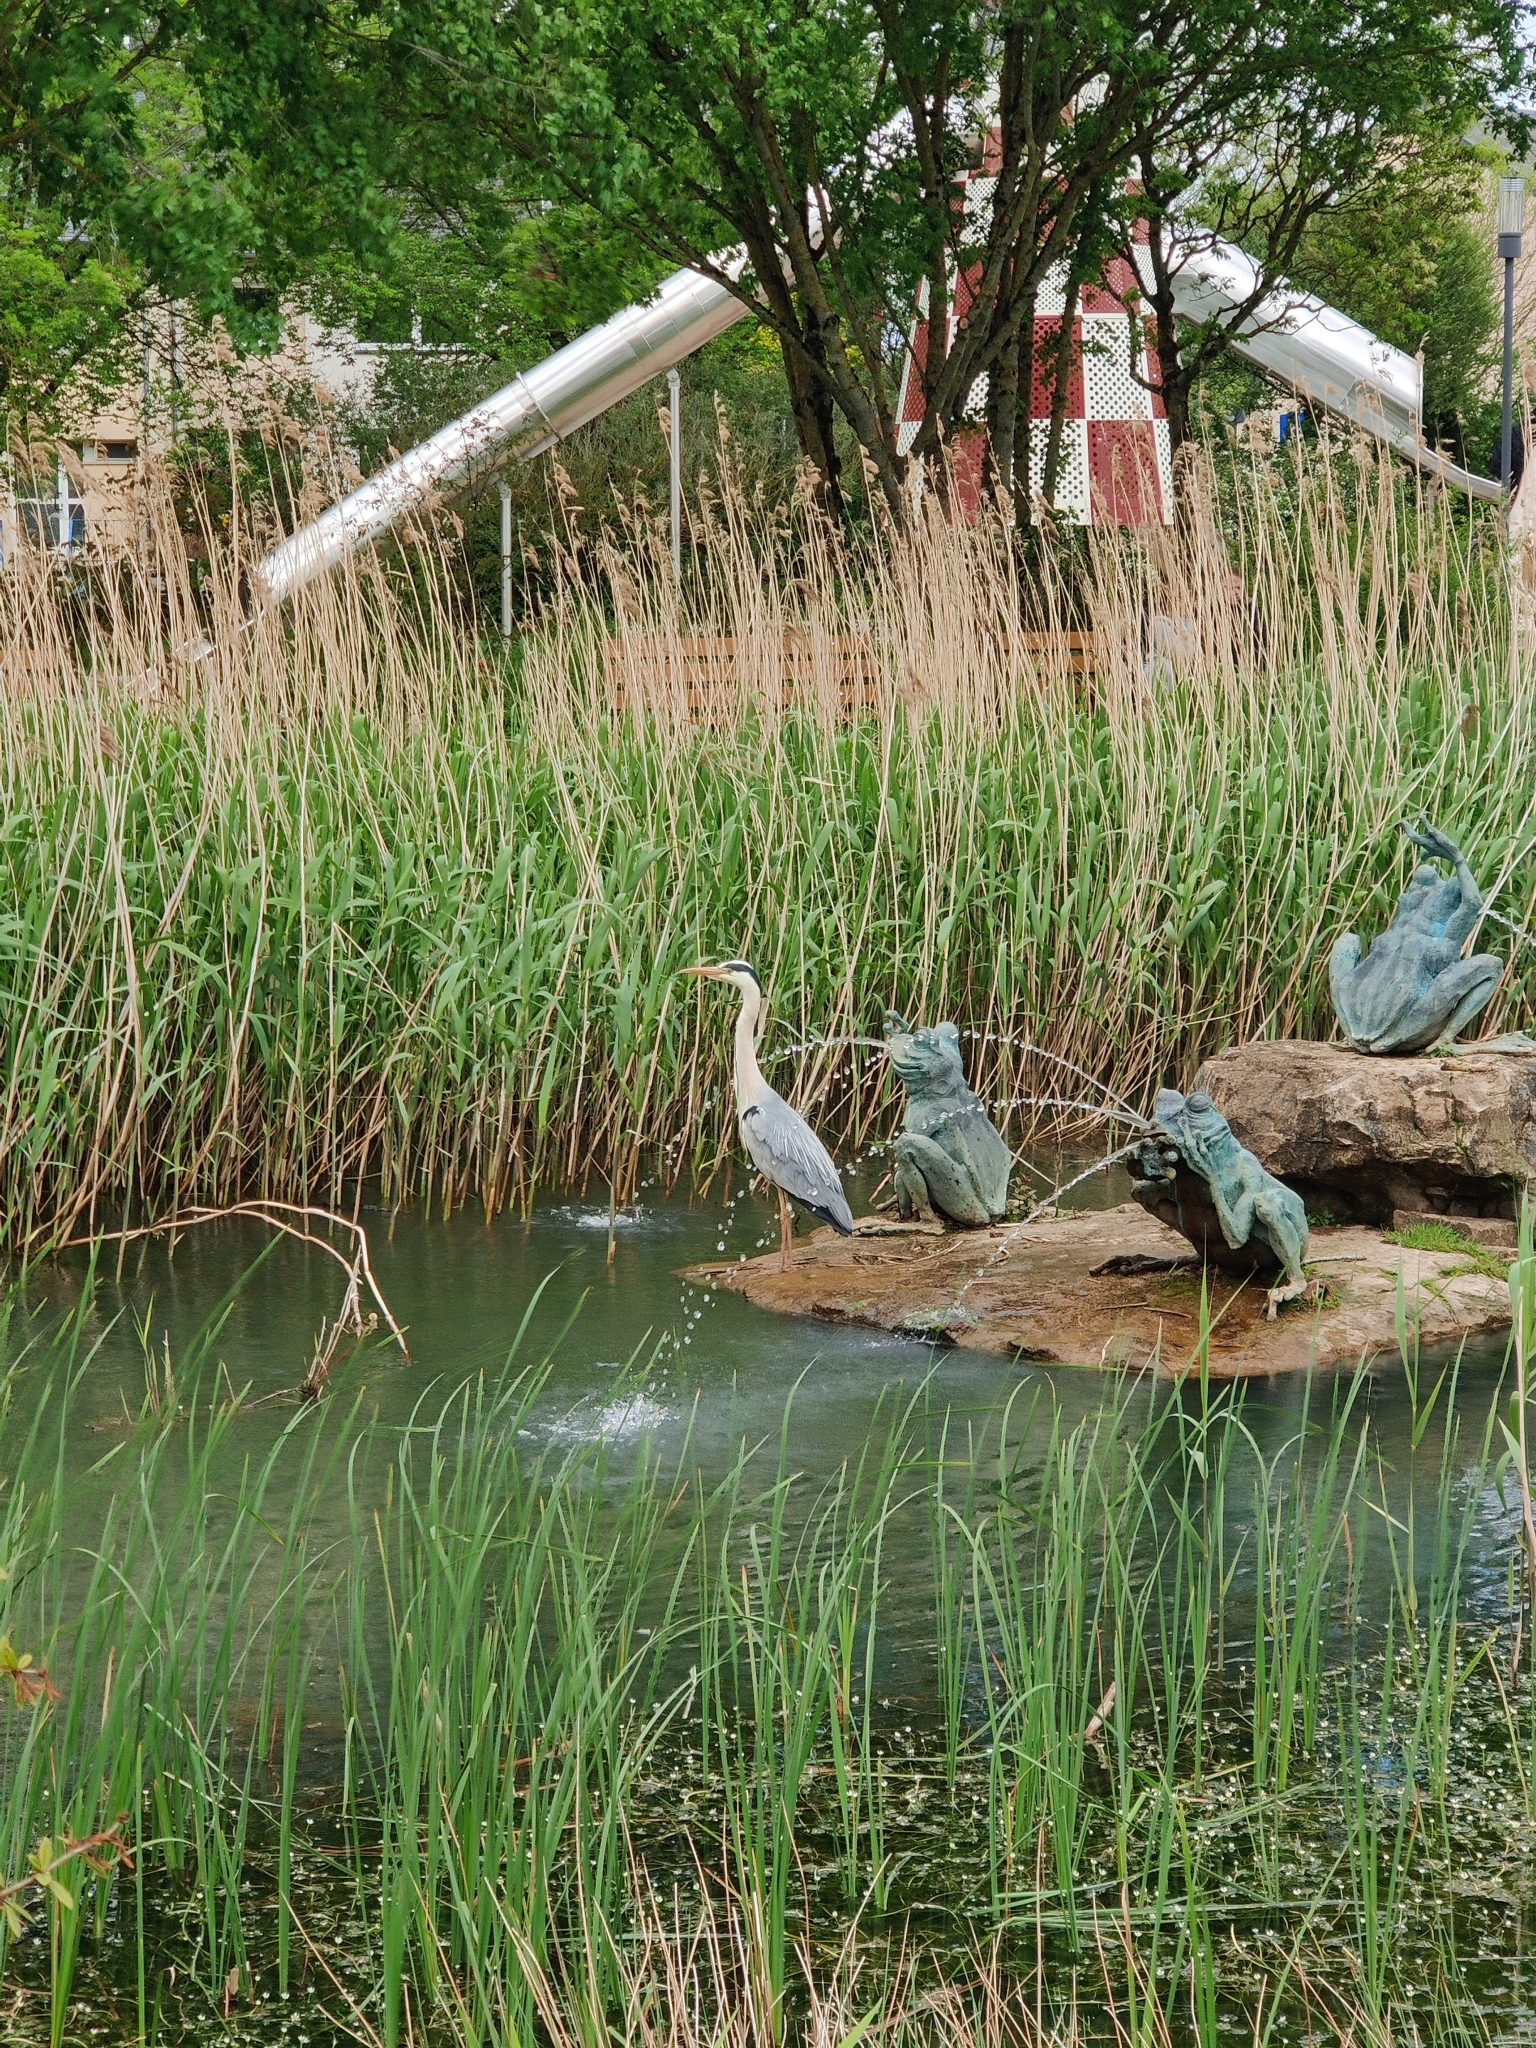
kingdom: Animalia
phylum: Chordata
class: Aves
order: Pelecaniformes
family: Ardeidae
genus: Ardea
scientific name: Ardea cinerea
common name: Grey heron
